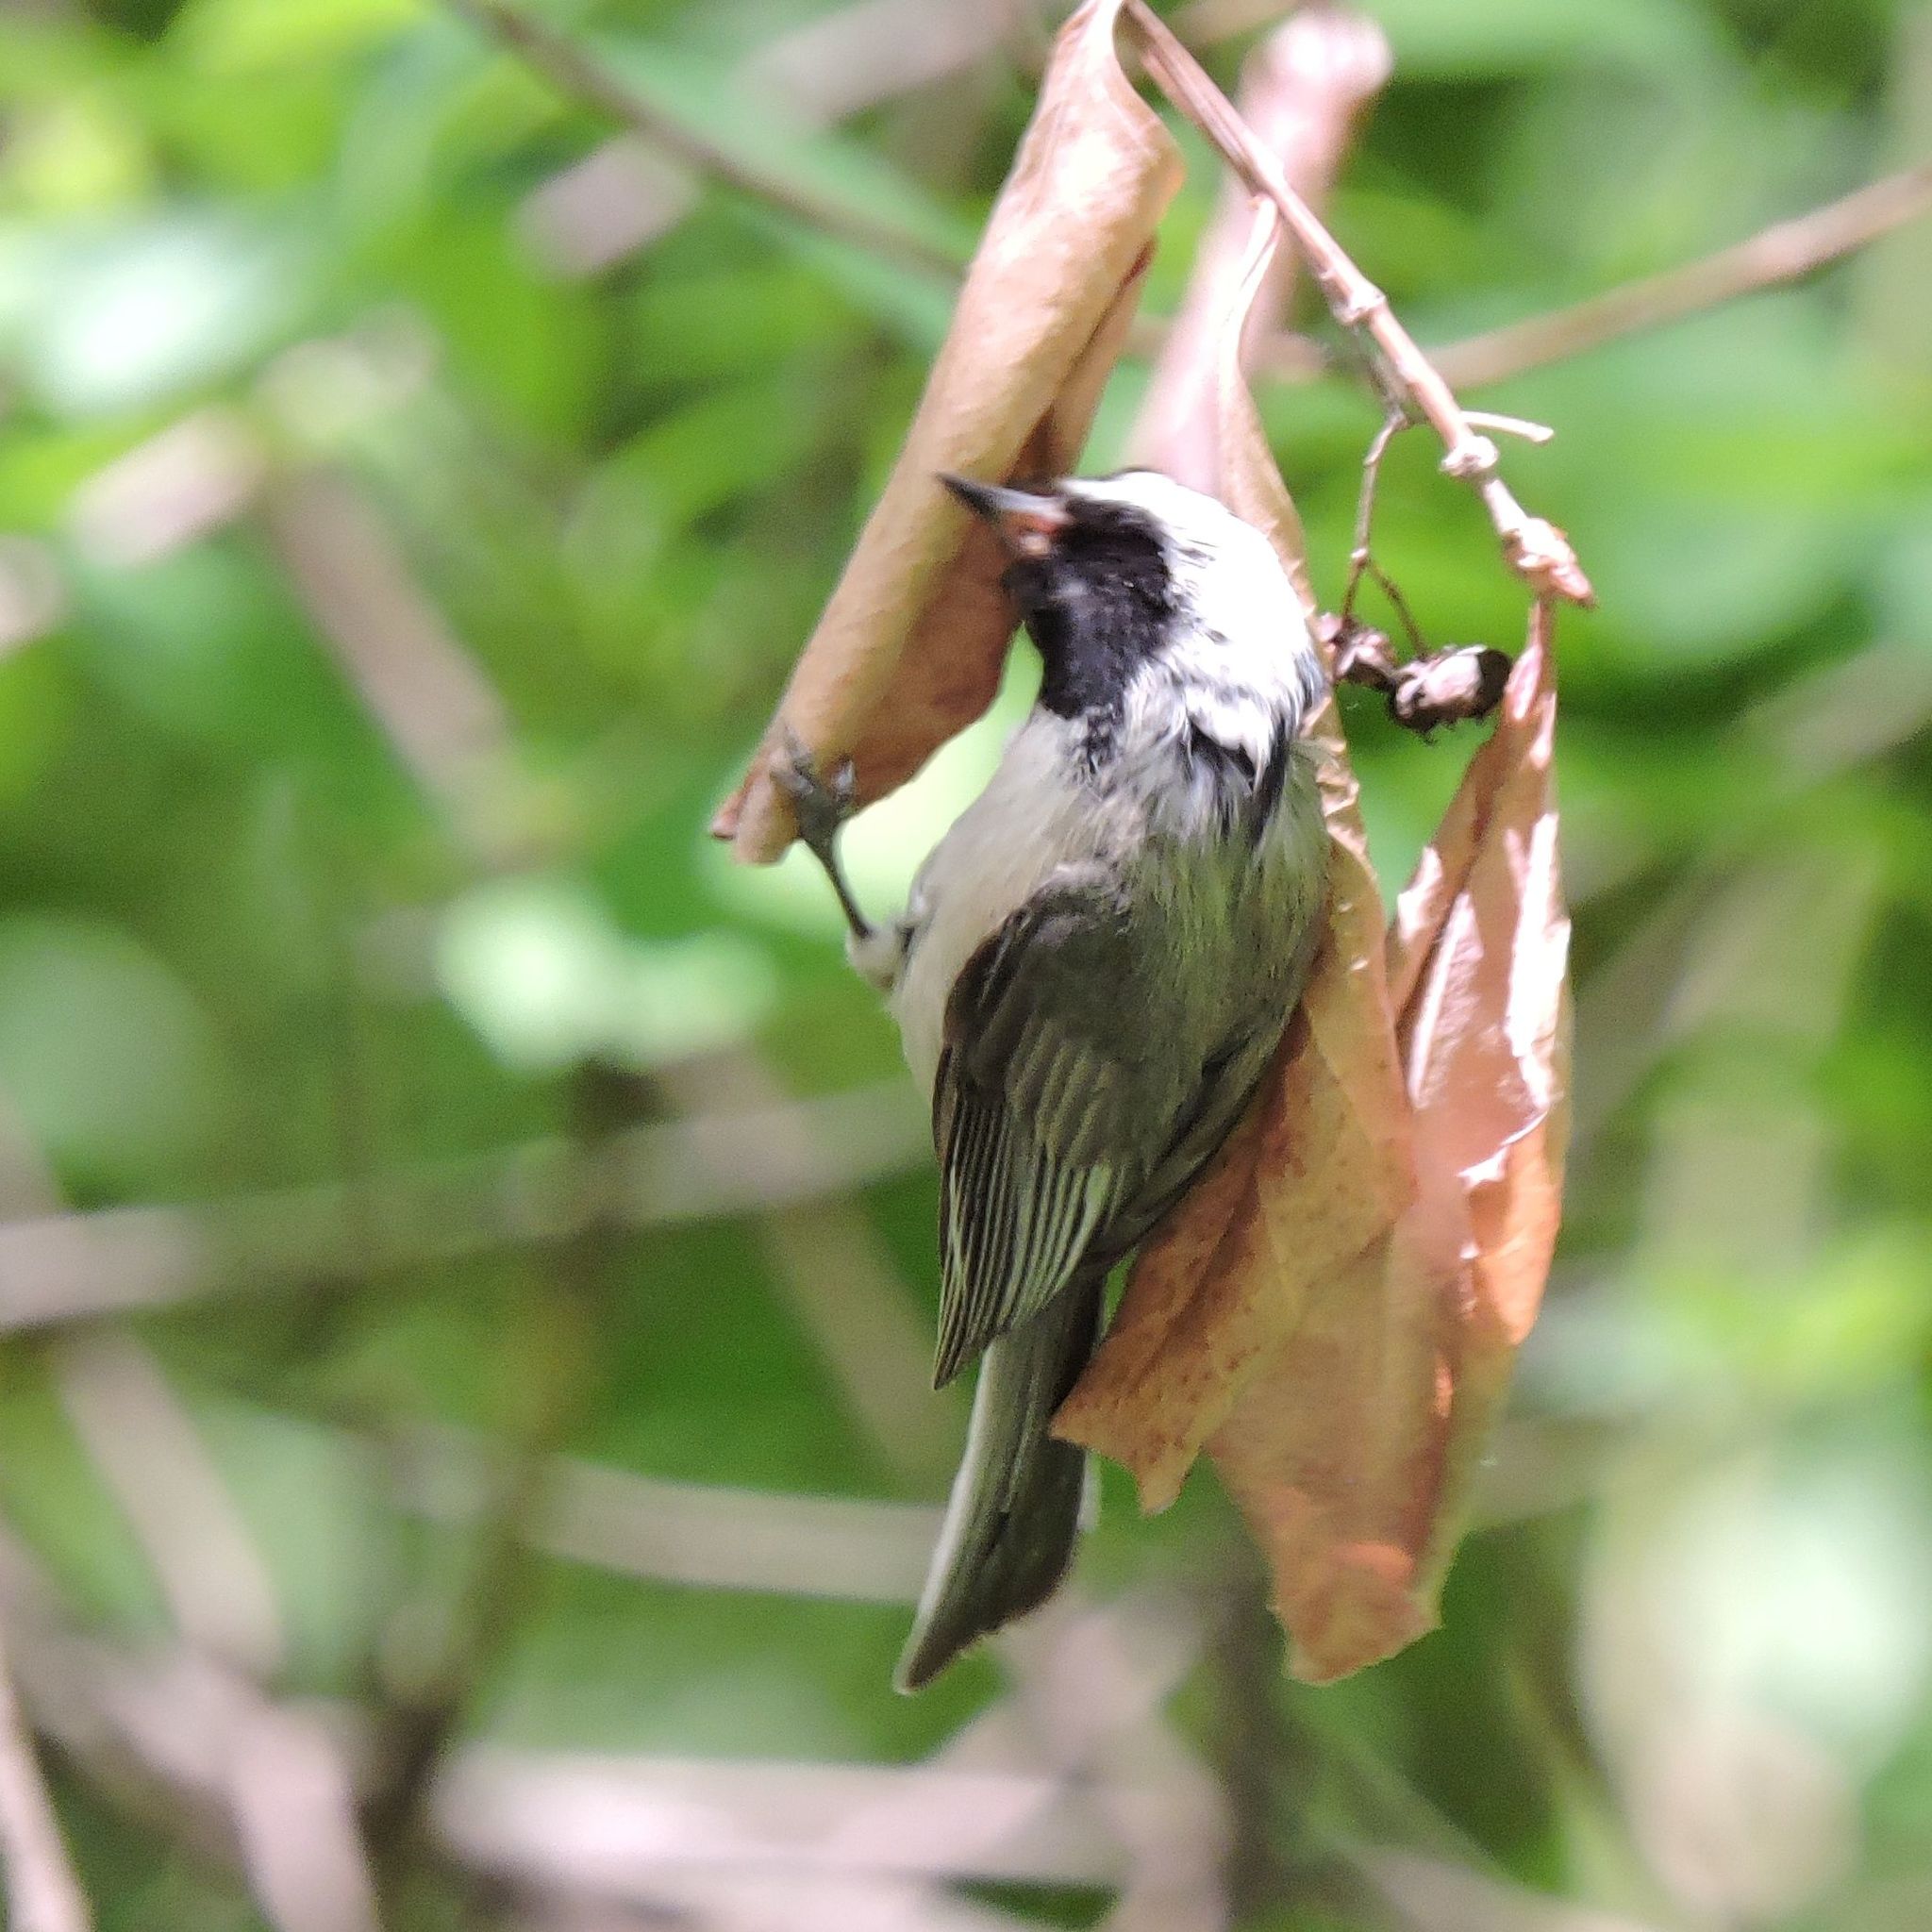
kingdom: Animalia
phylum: Chordata
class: Aves
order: Passeriformes
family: Paridae
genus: Poecile
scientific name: Poecile carolinensis
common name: Carolina chickadee
